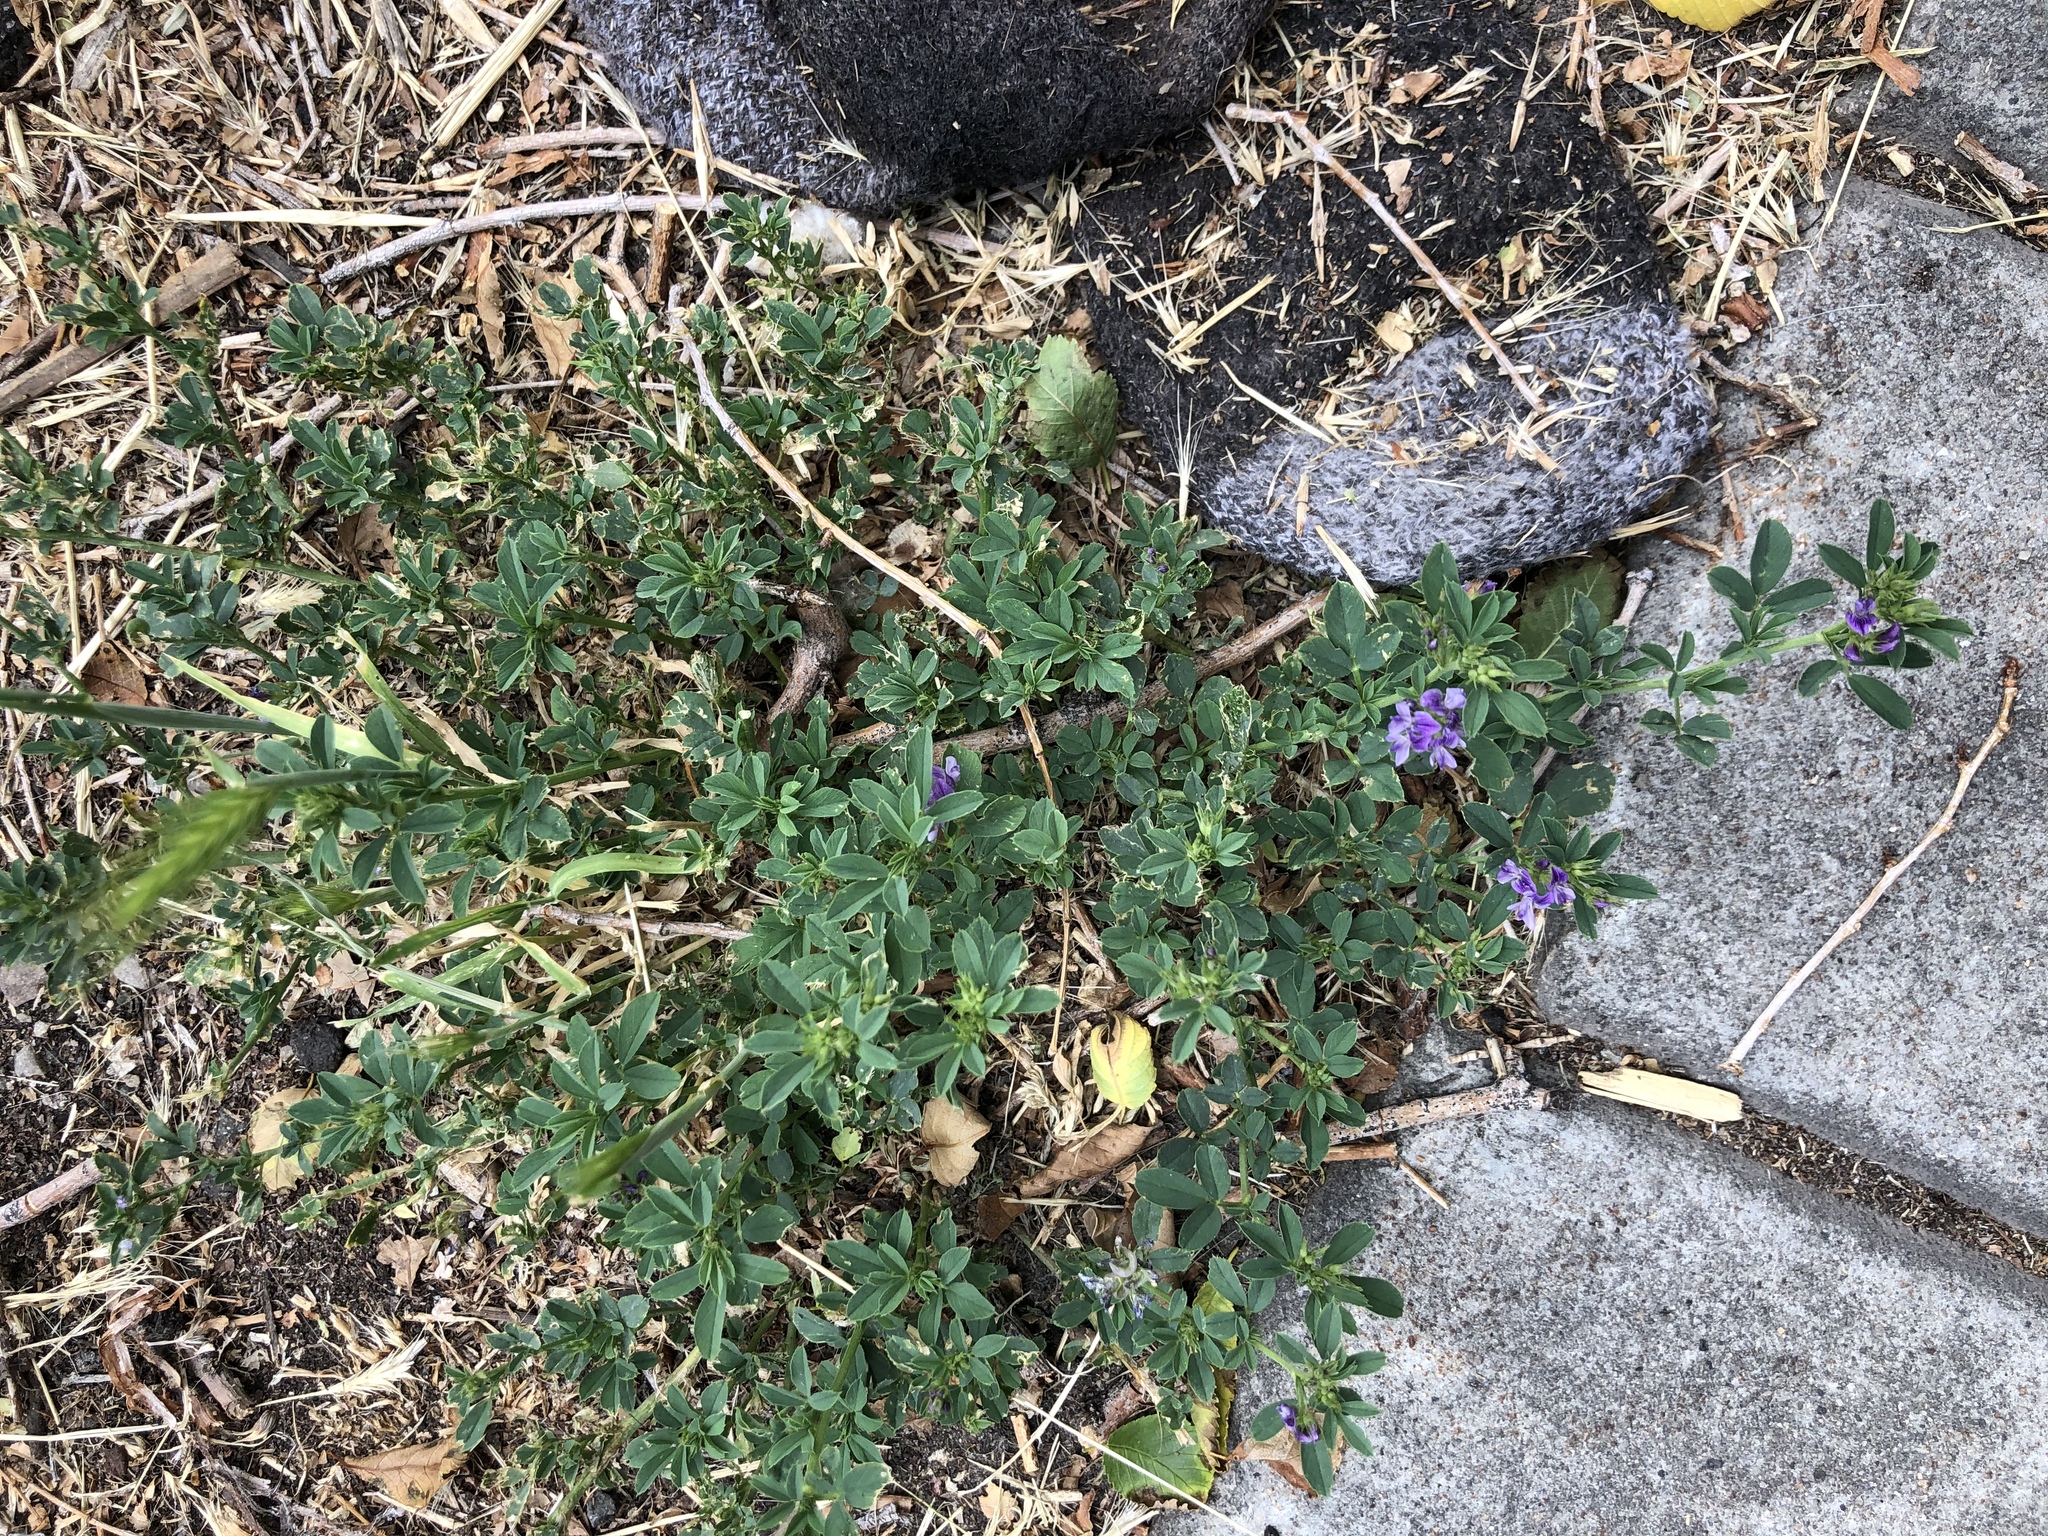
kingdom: Plantae
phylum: Tracheophyta
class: Magnoliopsida
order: Fabales
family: Fabaceae
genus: Medicago
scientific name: Medicago sativa
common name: Alfalfa
